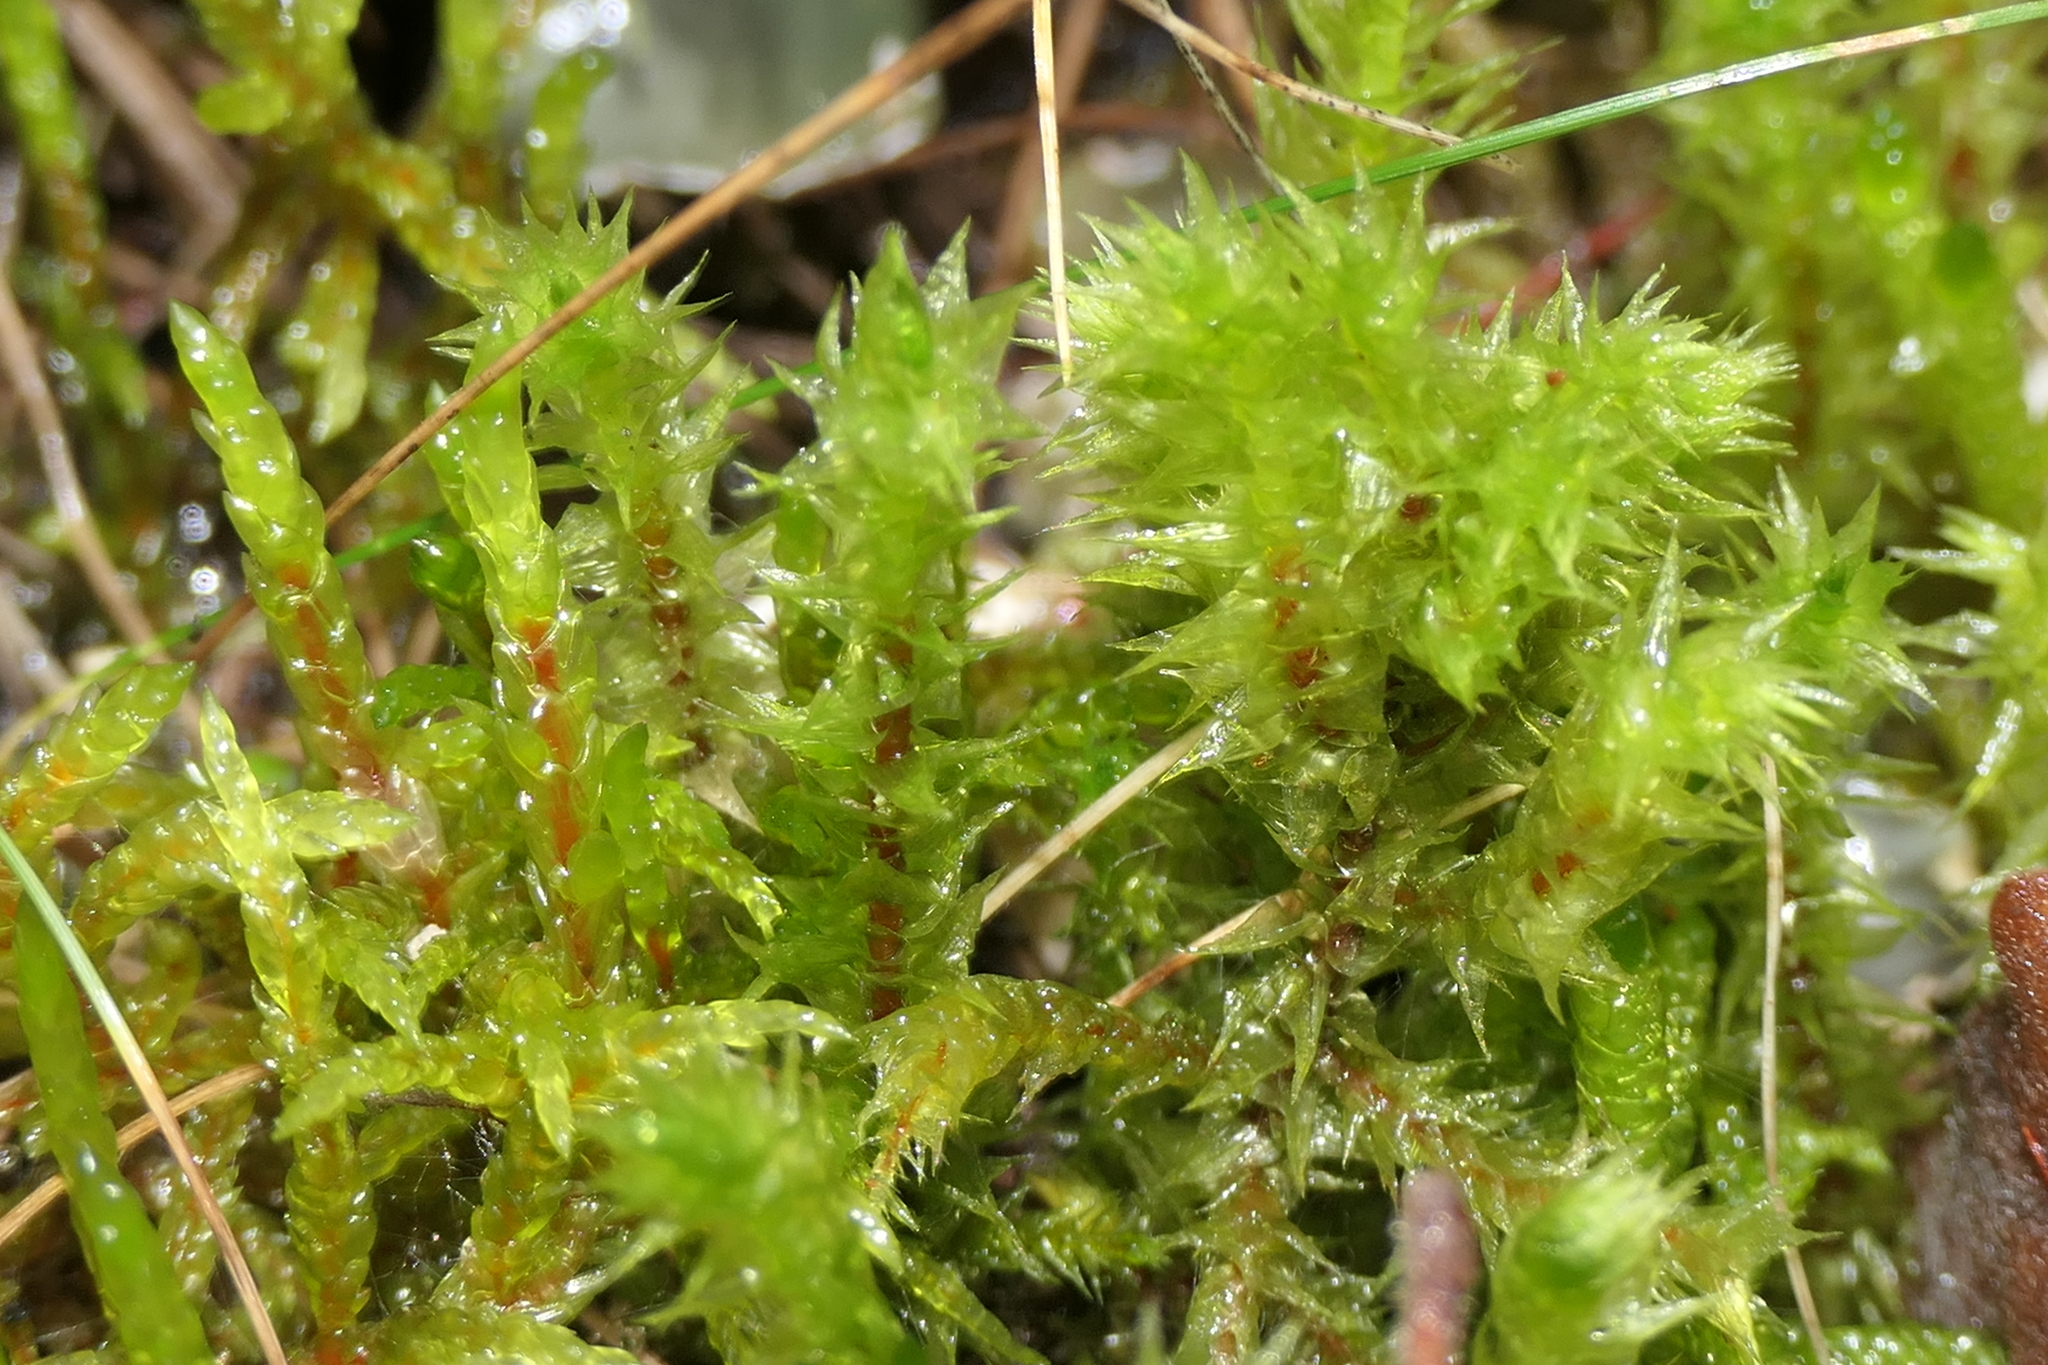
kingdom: Plantae
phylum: Bryophyta
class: Bryopsida
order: Hypnales
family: Hylocomiaceae
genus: Hylocomiadelphus
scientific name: Hylocomiadelphus triquetrus
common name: Rough goose neck moss
